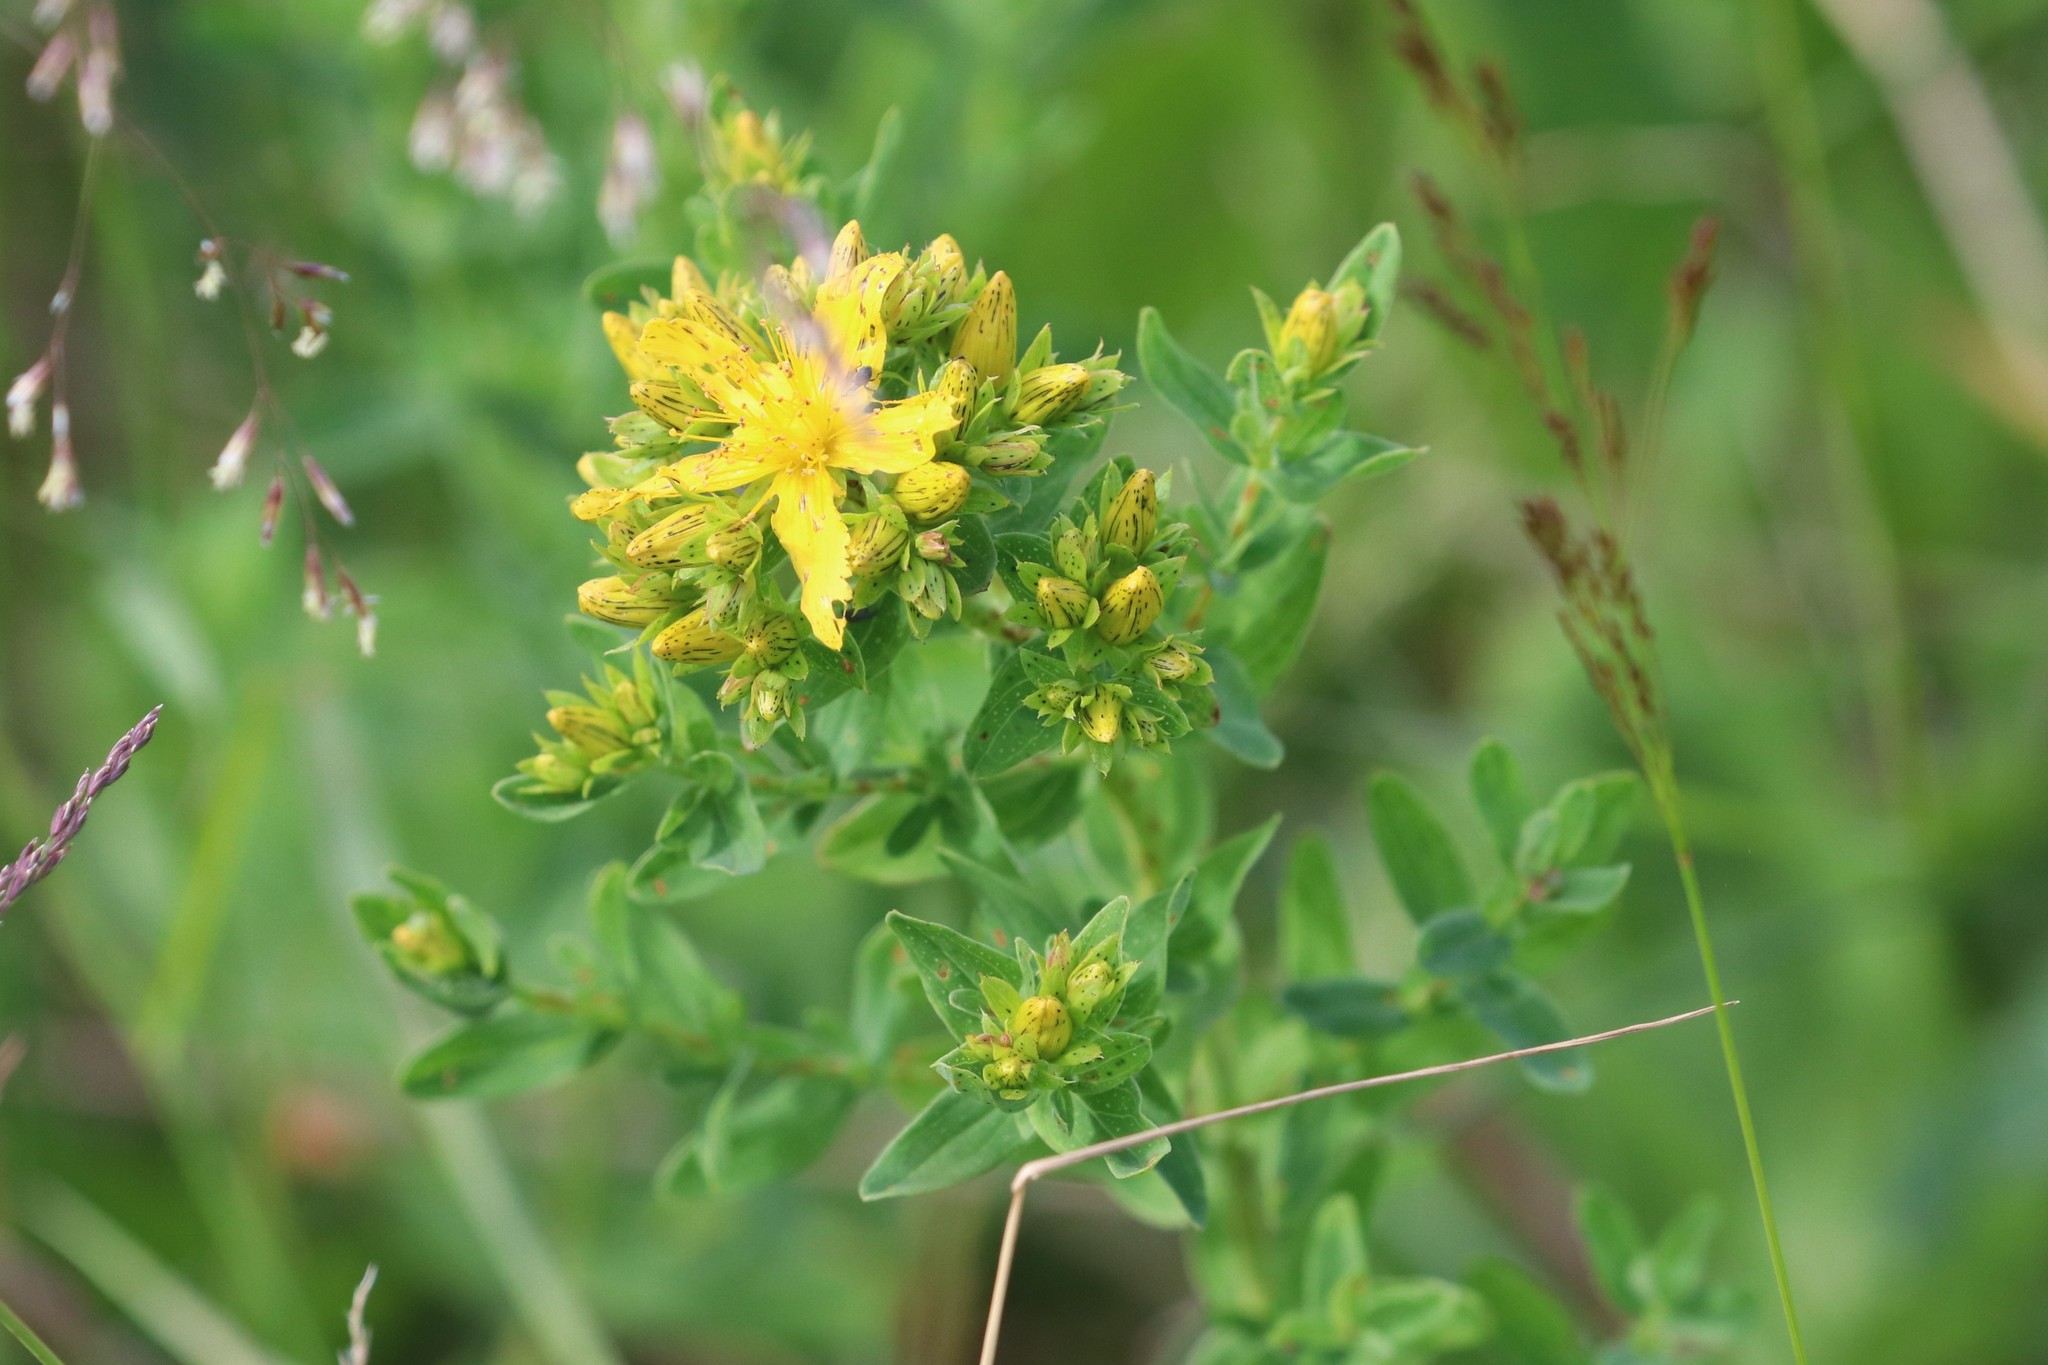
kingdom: Plantae
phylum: Tracheophyta
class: Magnoliopsida
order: Malpighiales
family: Hypericaceae
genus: Hypericum
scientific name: Hypericum perforatum
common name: Common st. johnswort
